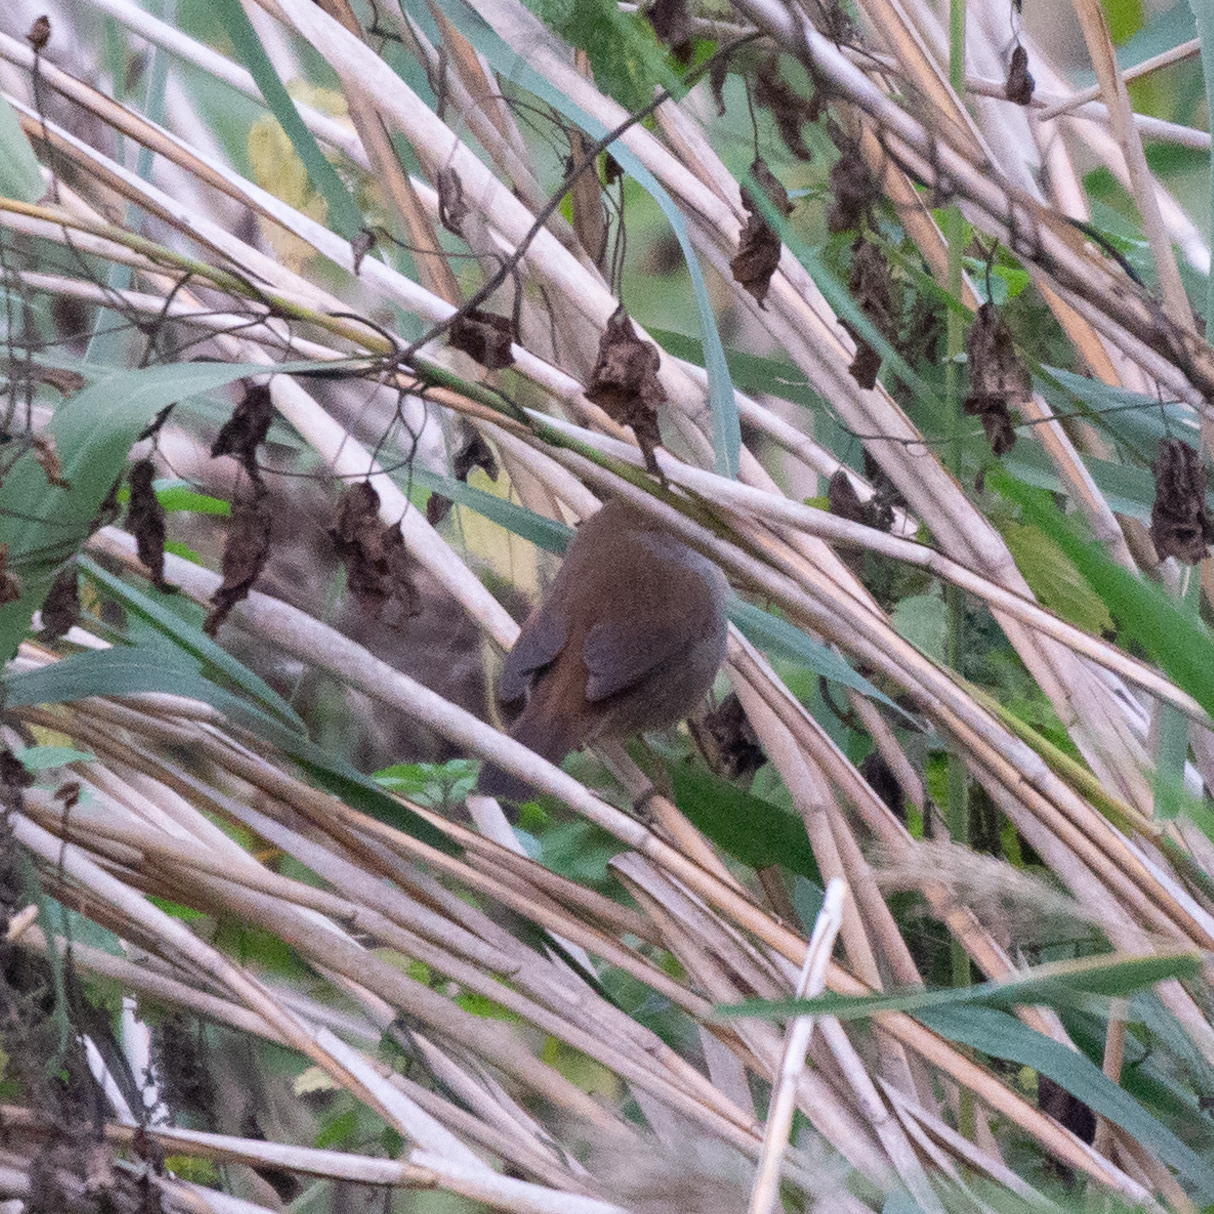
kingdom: Animalia
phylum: Chordata
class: Aves
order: Passeriformes
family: Cettiidae
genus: Cettia
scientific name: Cettia cetti
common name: Cetti's warbler
